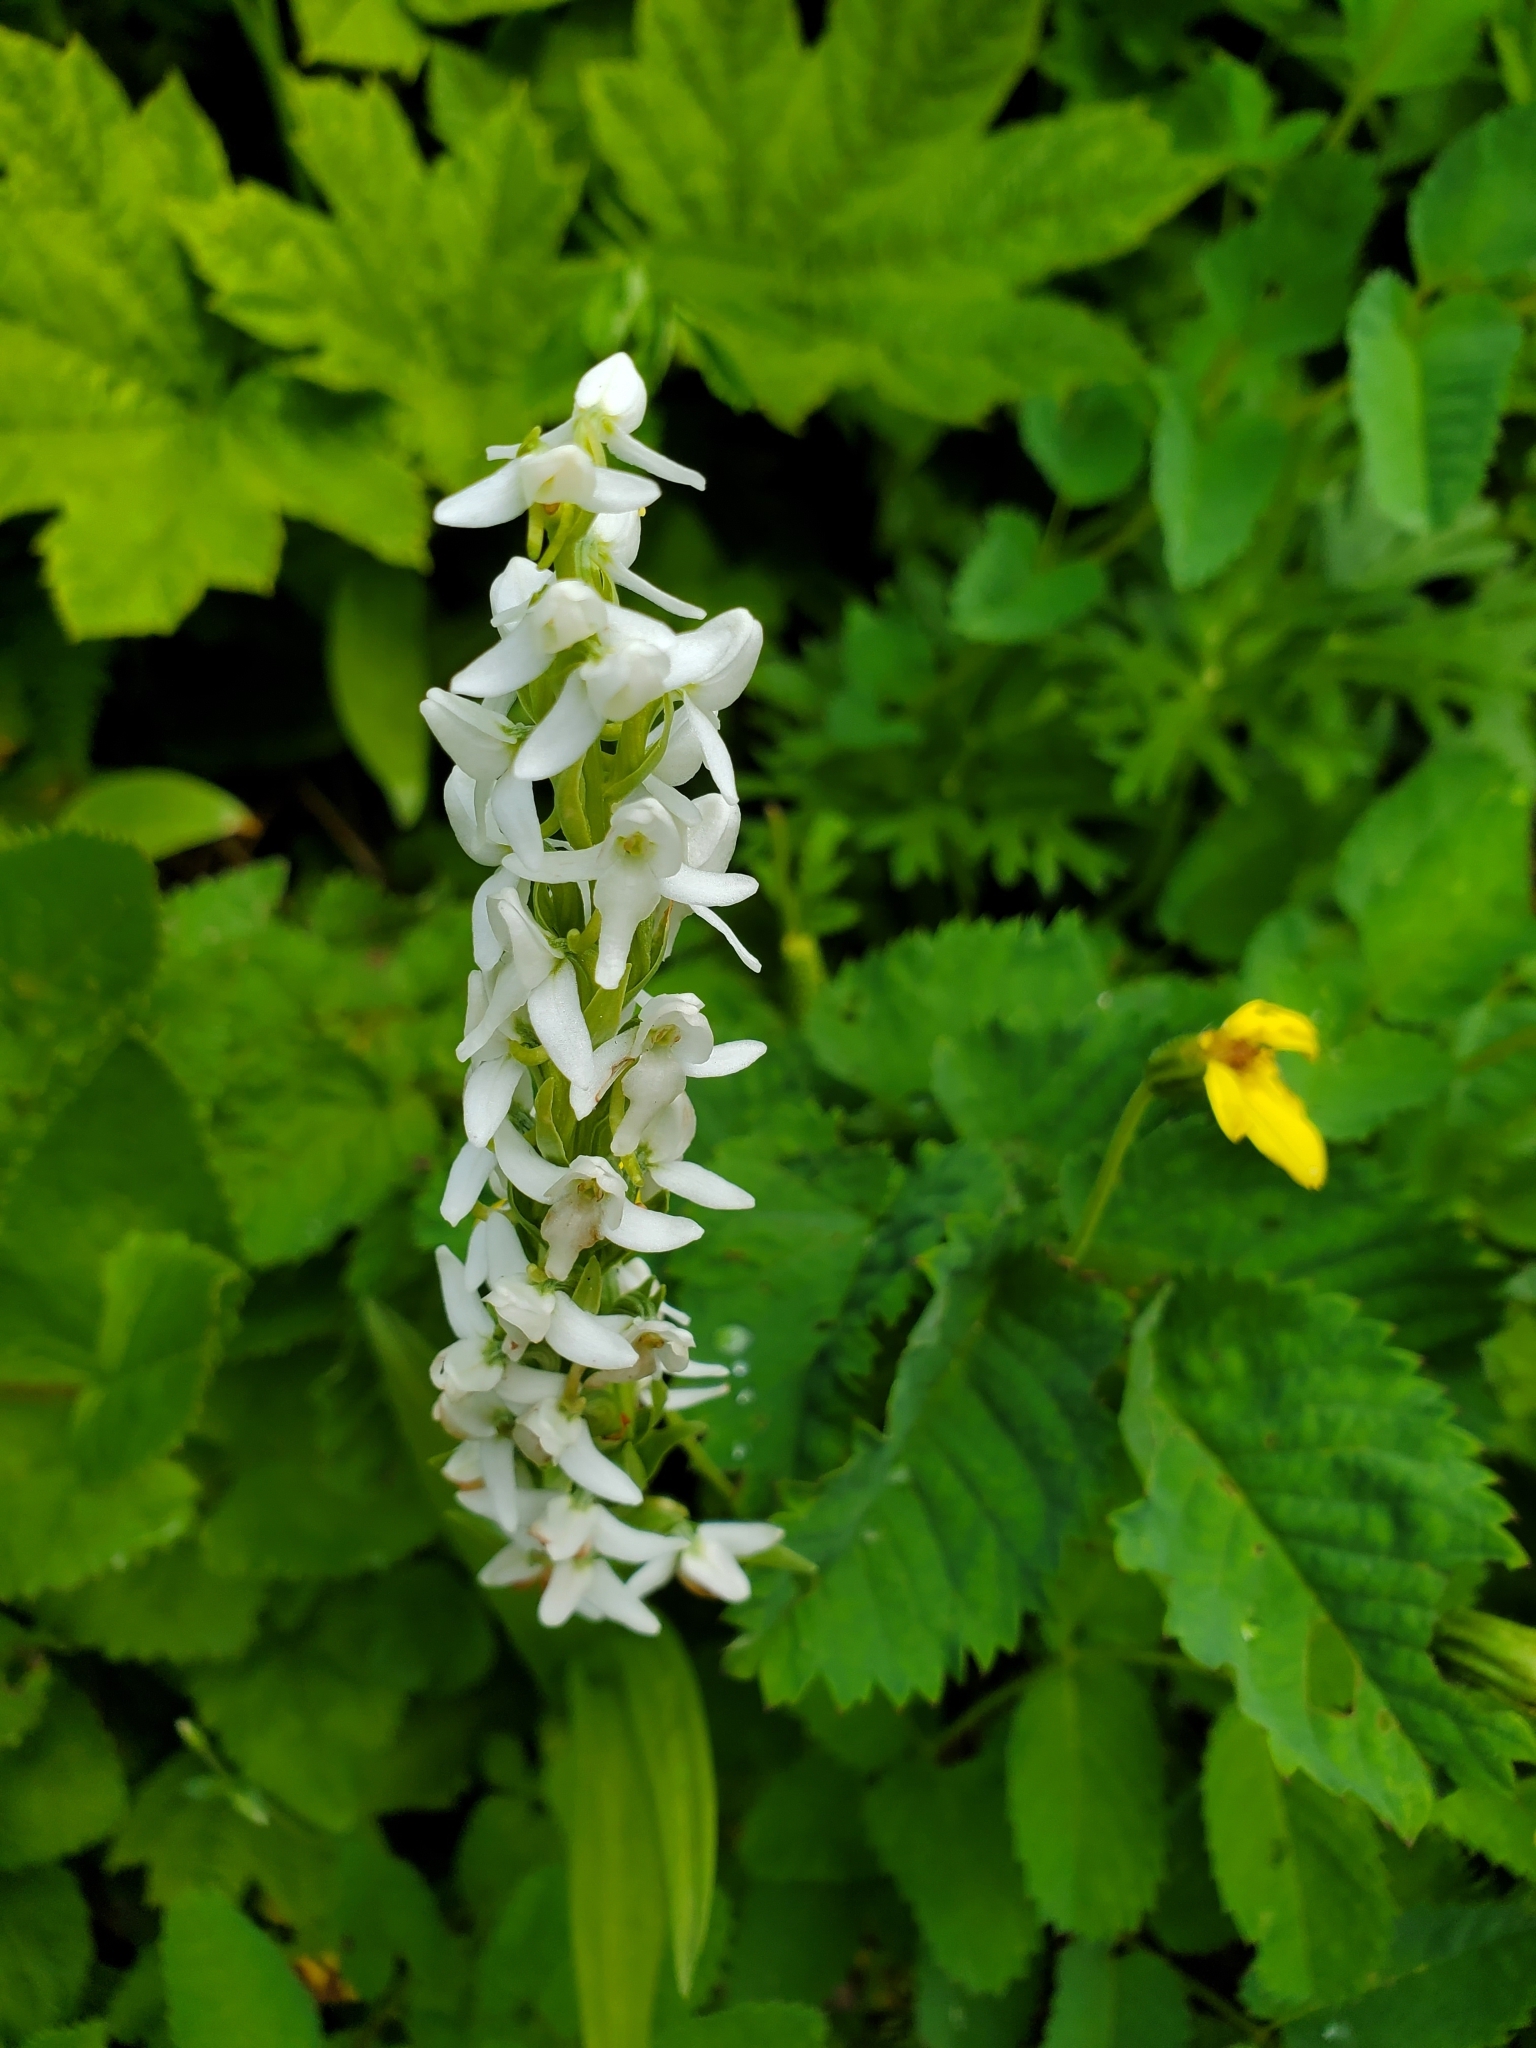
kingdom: Plantae
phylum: Tracheophyta
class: Liliopsida
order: Asparagales
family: Orchidaceae
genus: Platanthera
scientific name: Platanthera dilatata
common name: Bog candles
